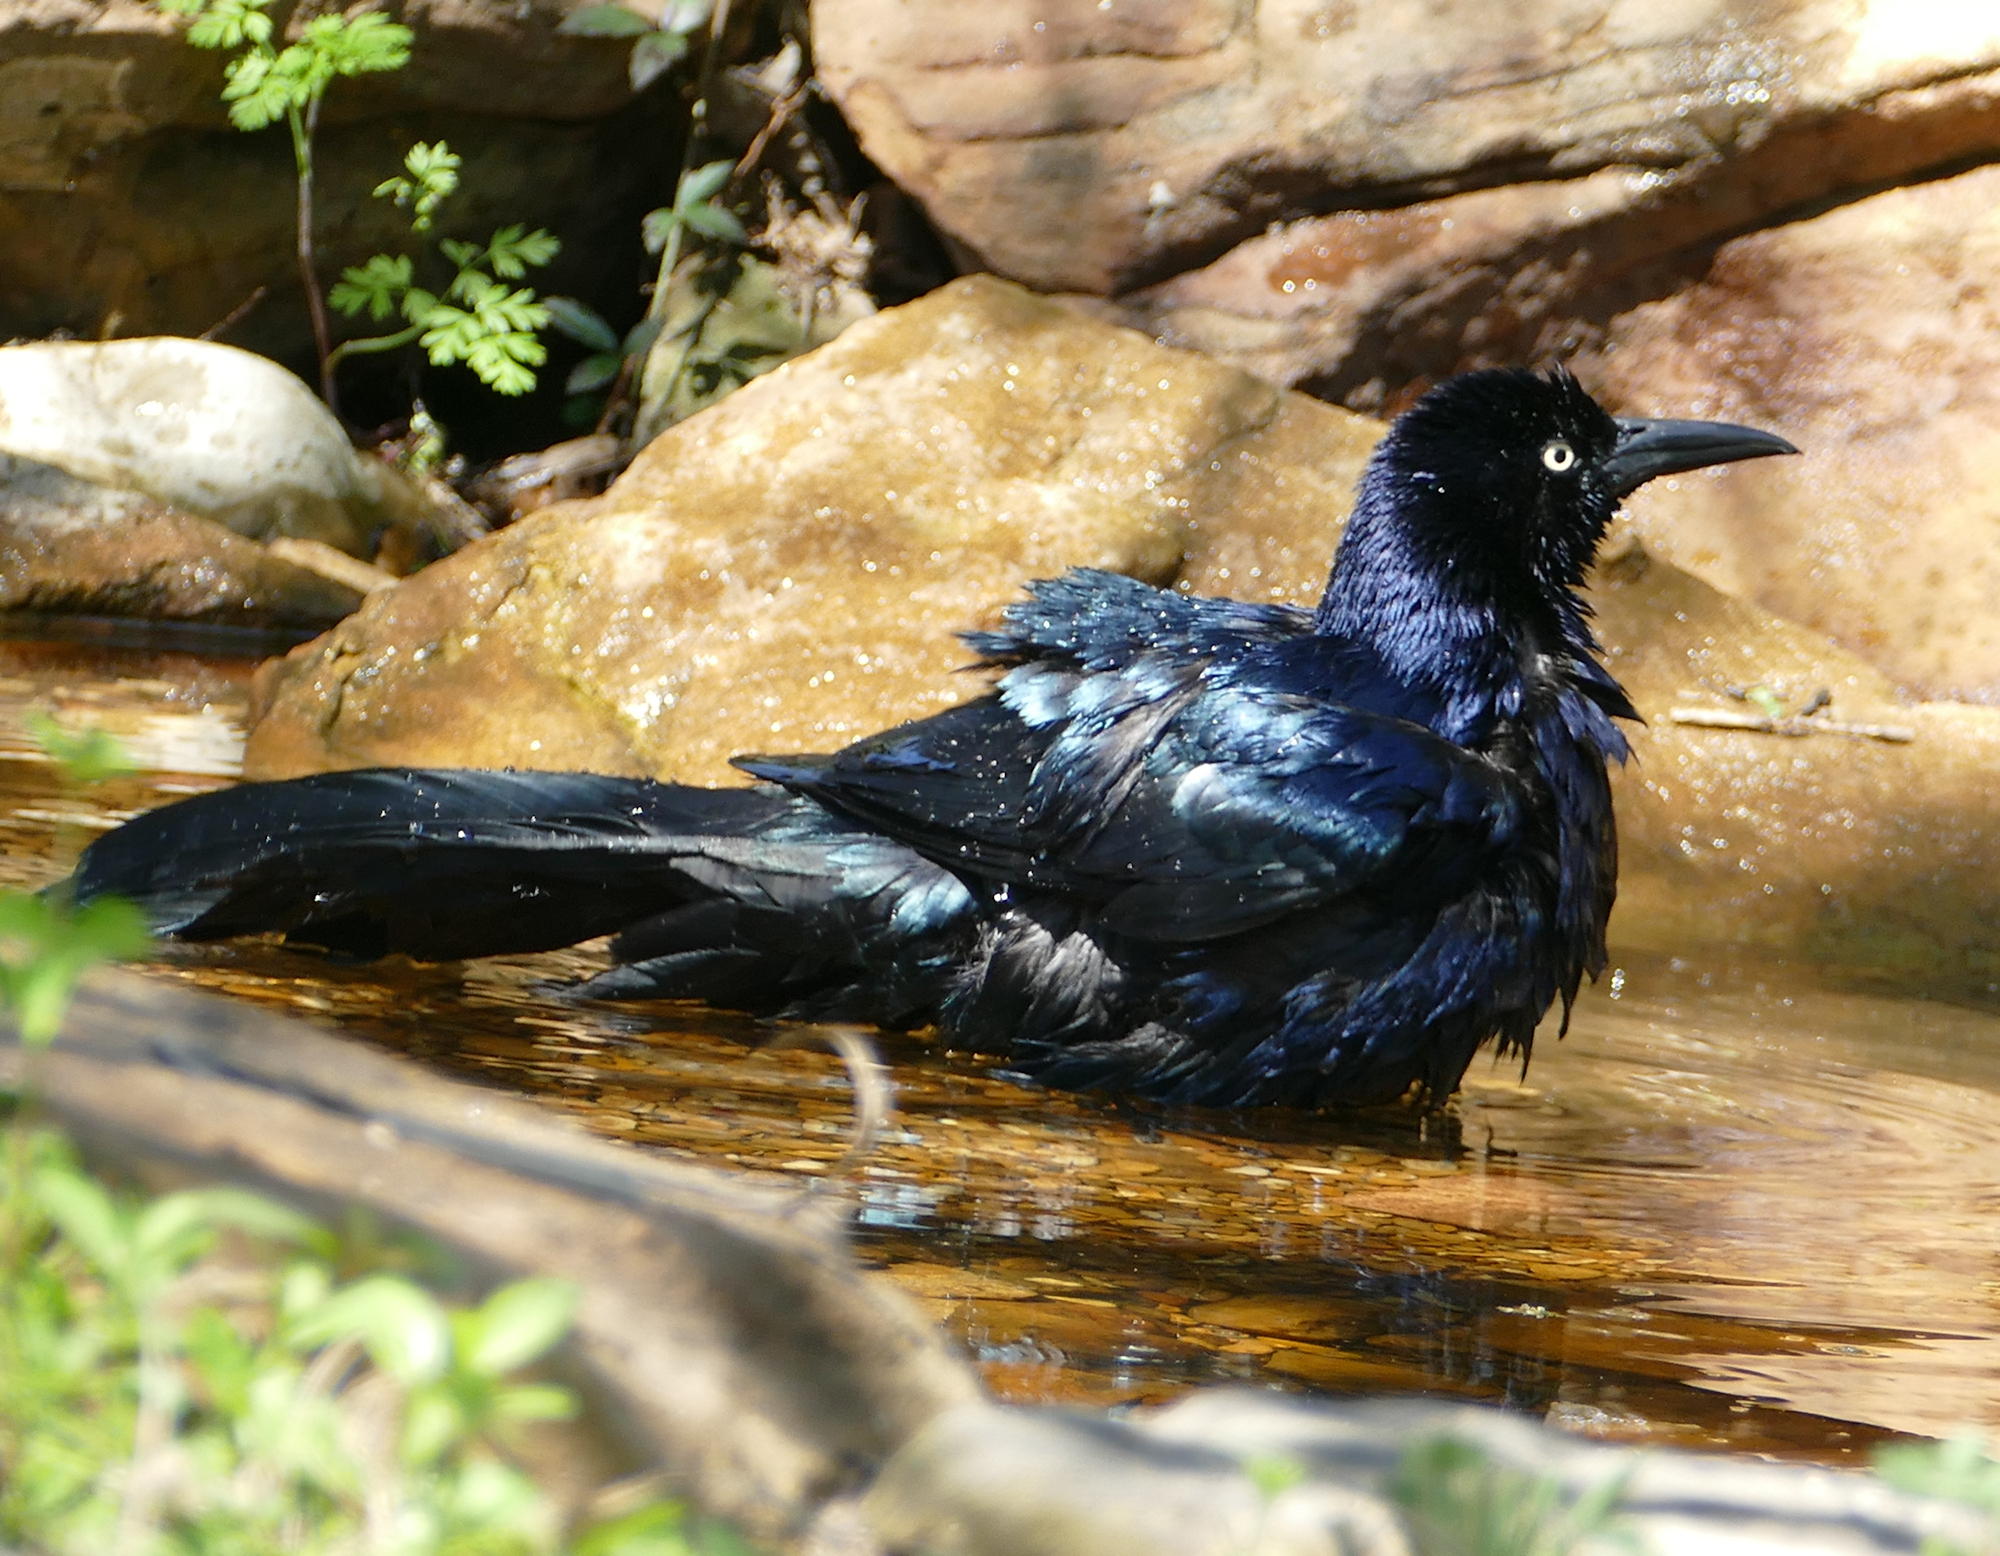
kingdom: Animalia
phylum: Chordata
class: Aves
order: Passeriformes
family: Icteridae
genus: Quiscalus
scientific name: Quiscalus mexicanus
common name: Great-tailed grackle
